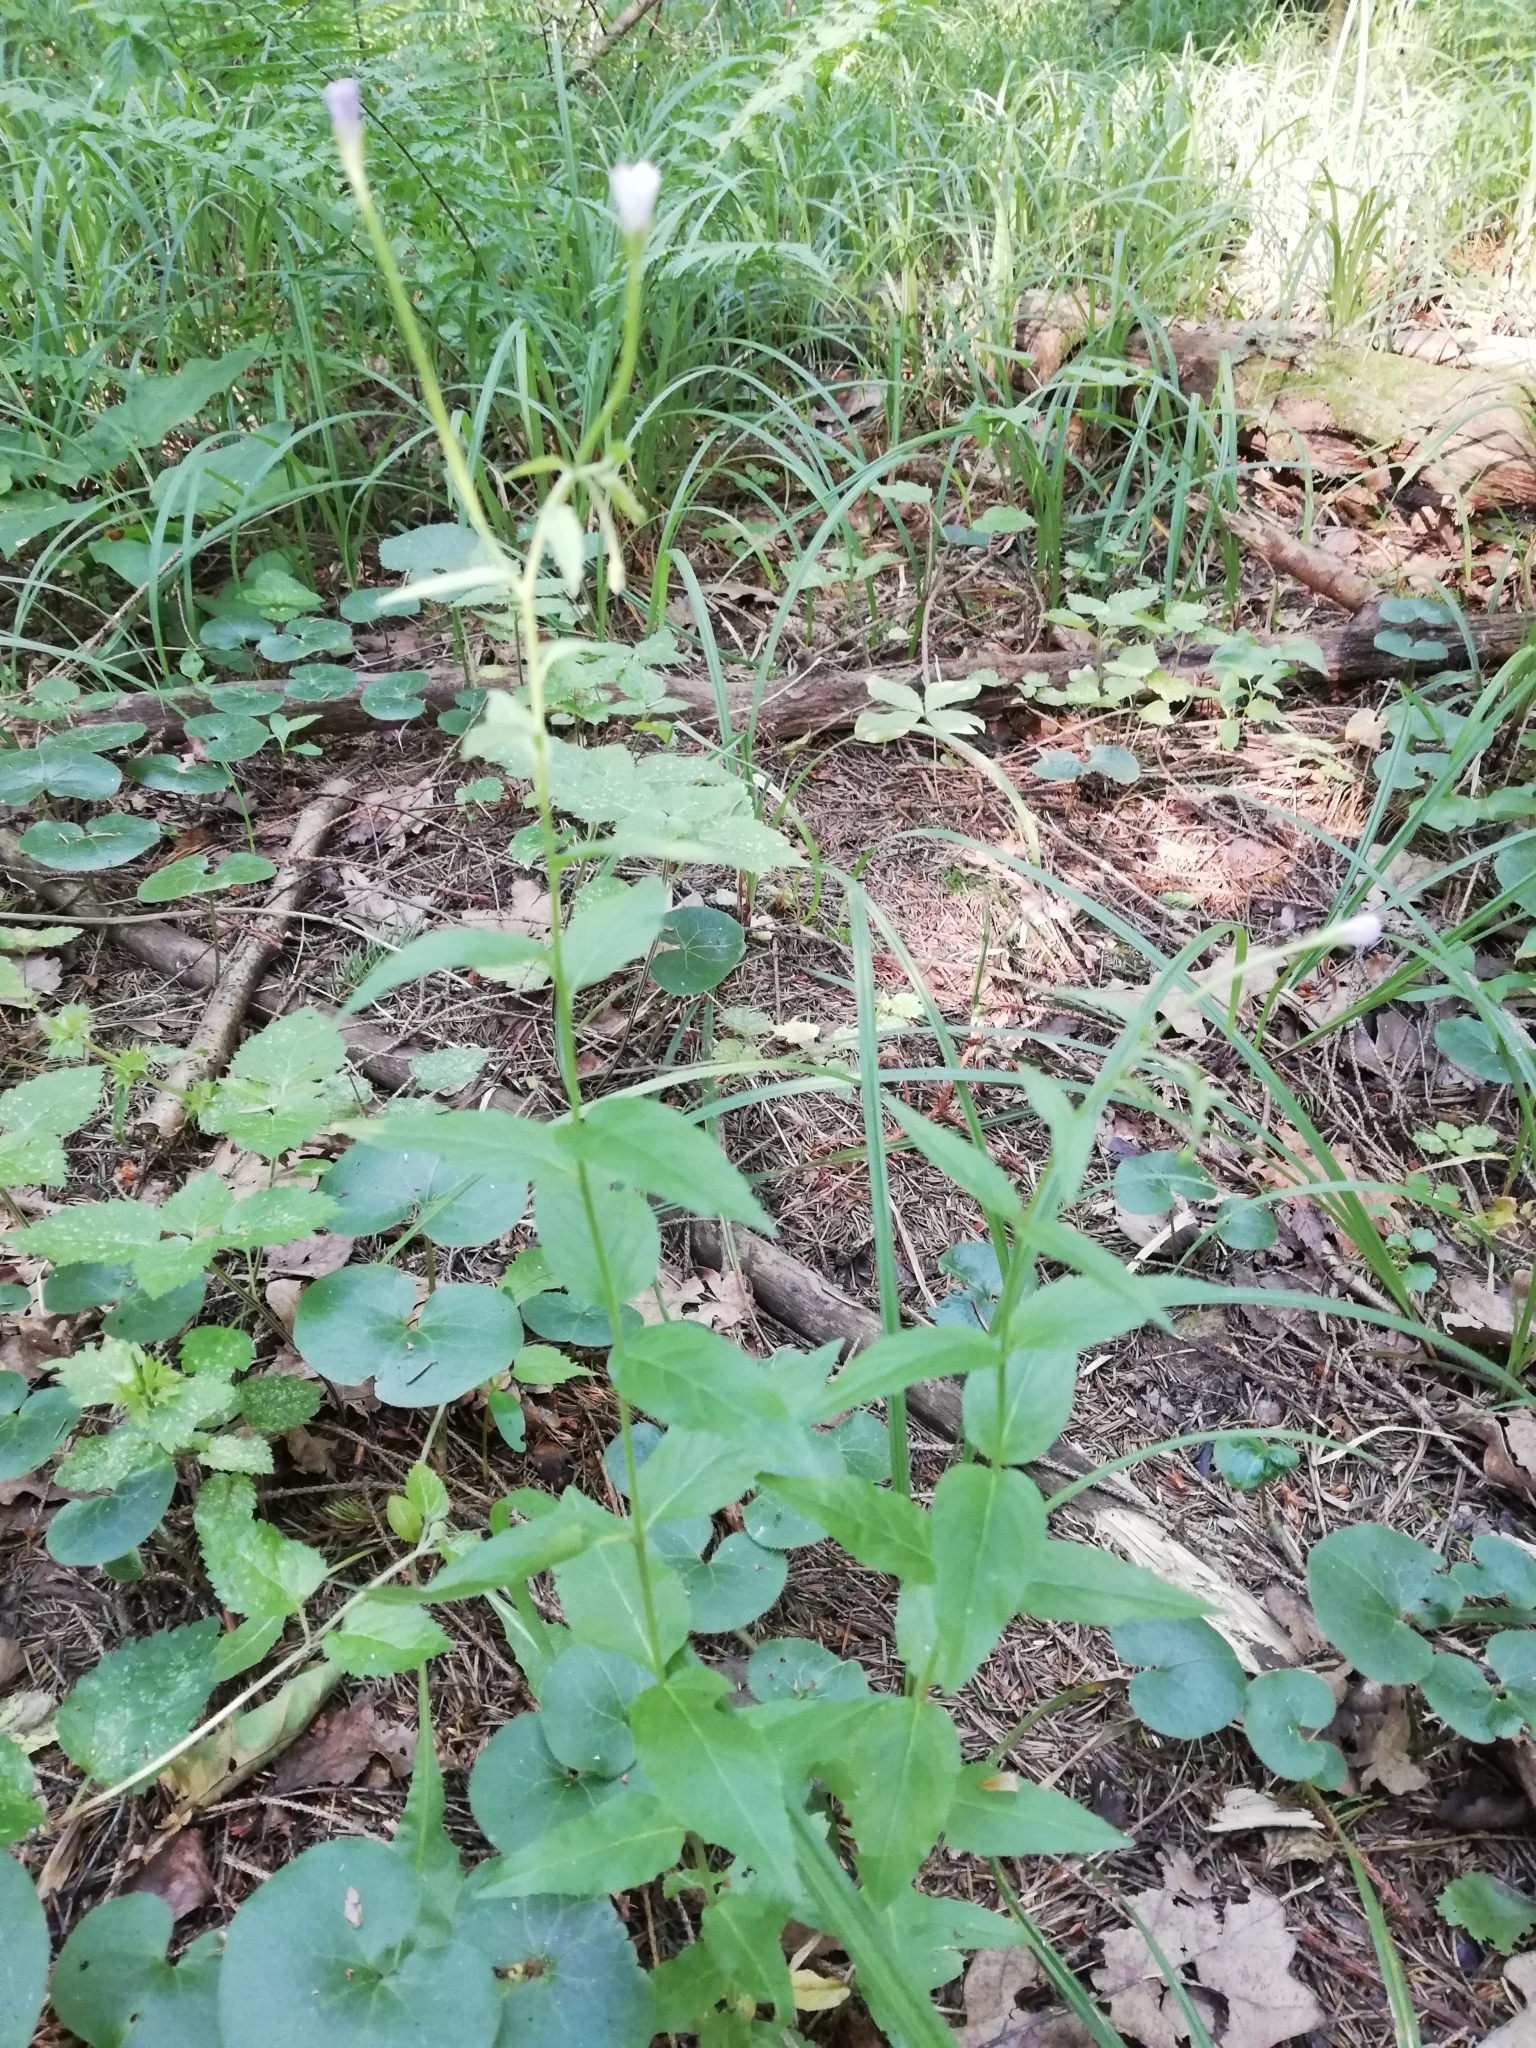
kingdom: Plantae
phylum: Tracheophyta
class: Magnoliopsida
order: Myrtales
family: Onagraceae
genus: Epilobium
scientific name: Epilobium montanum
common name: Broad-leaved willowherb
